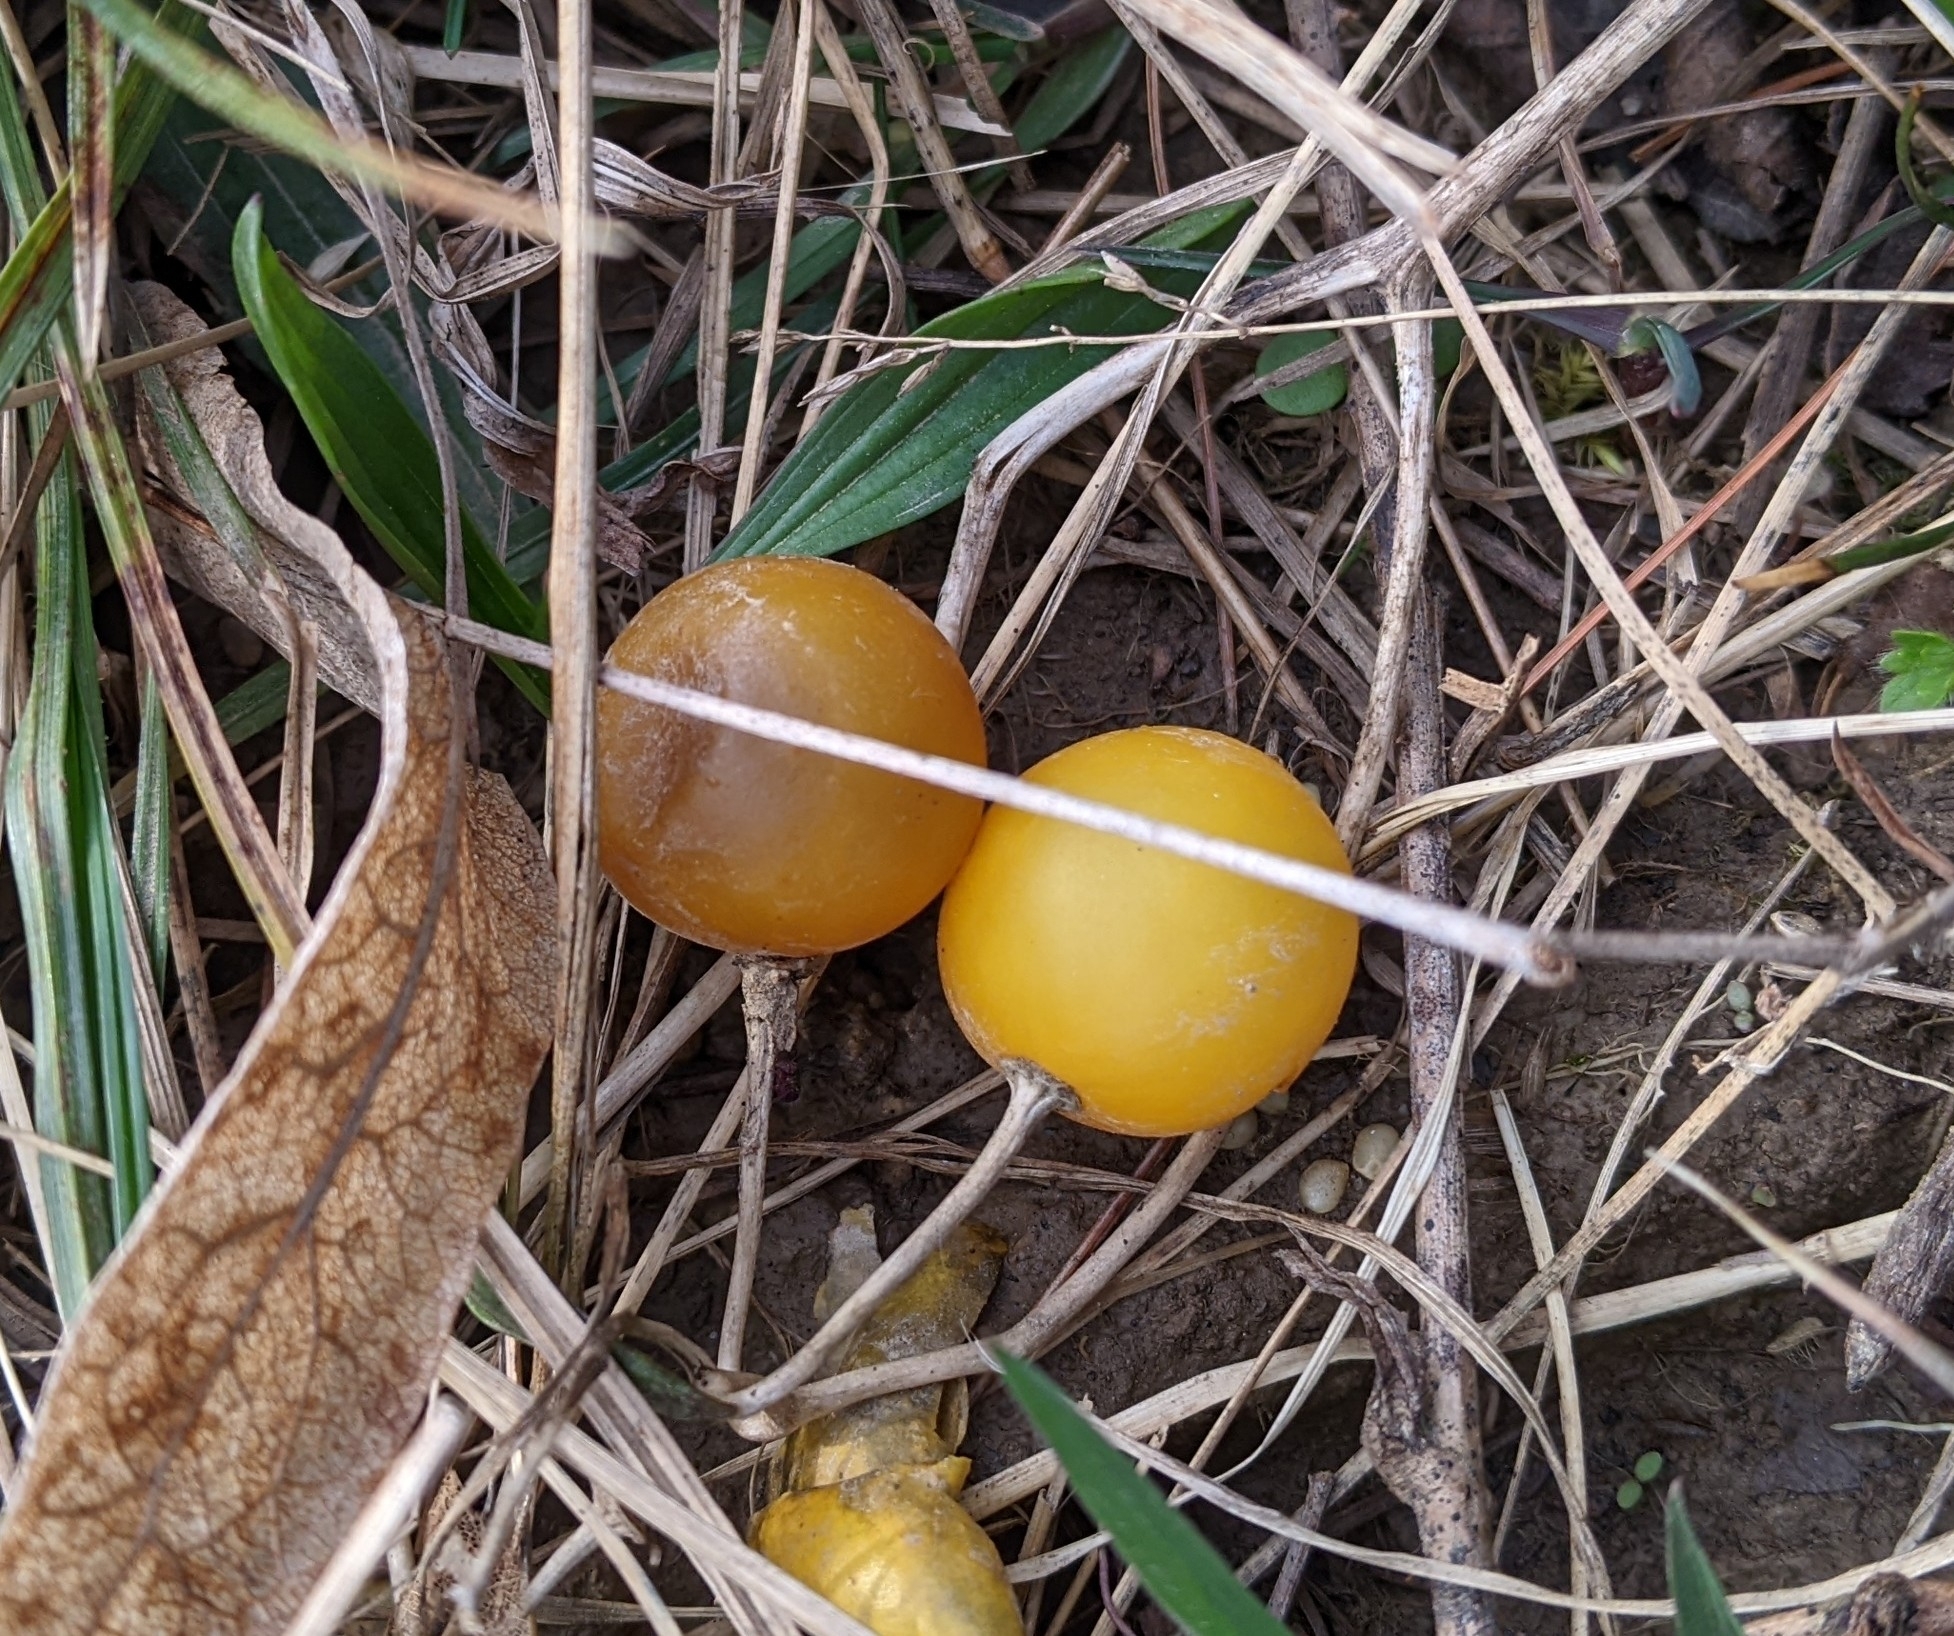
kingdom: Plantae
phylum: Tracheophyta
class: Magnoliopsida
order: Solanales
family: Solanaceae
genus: Solanum
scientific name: Solanum carolinense
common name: Horse-nettle
